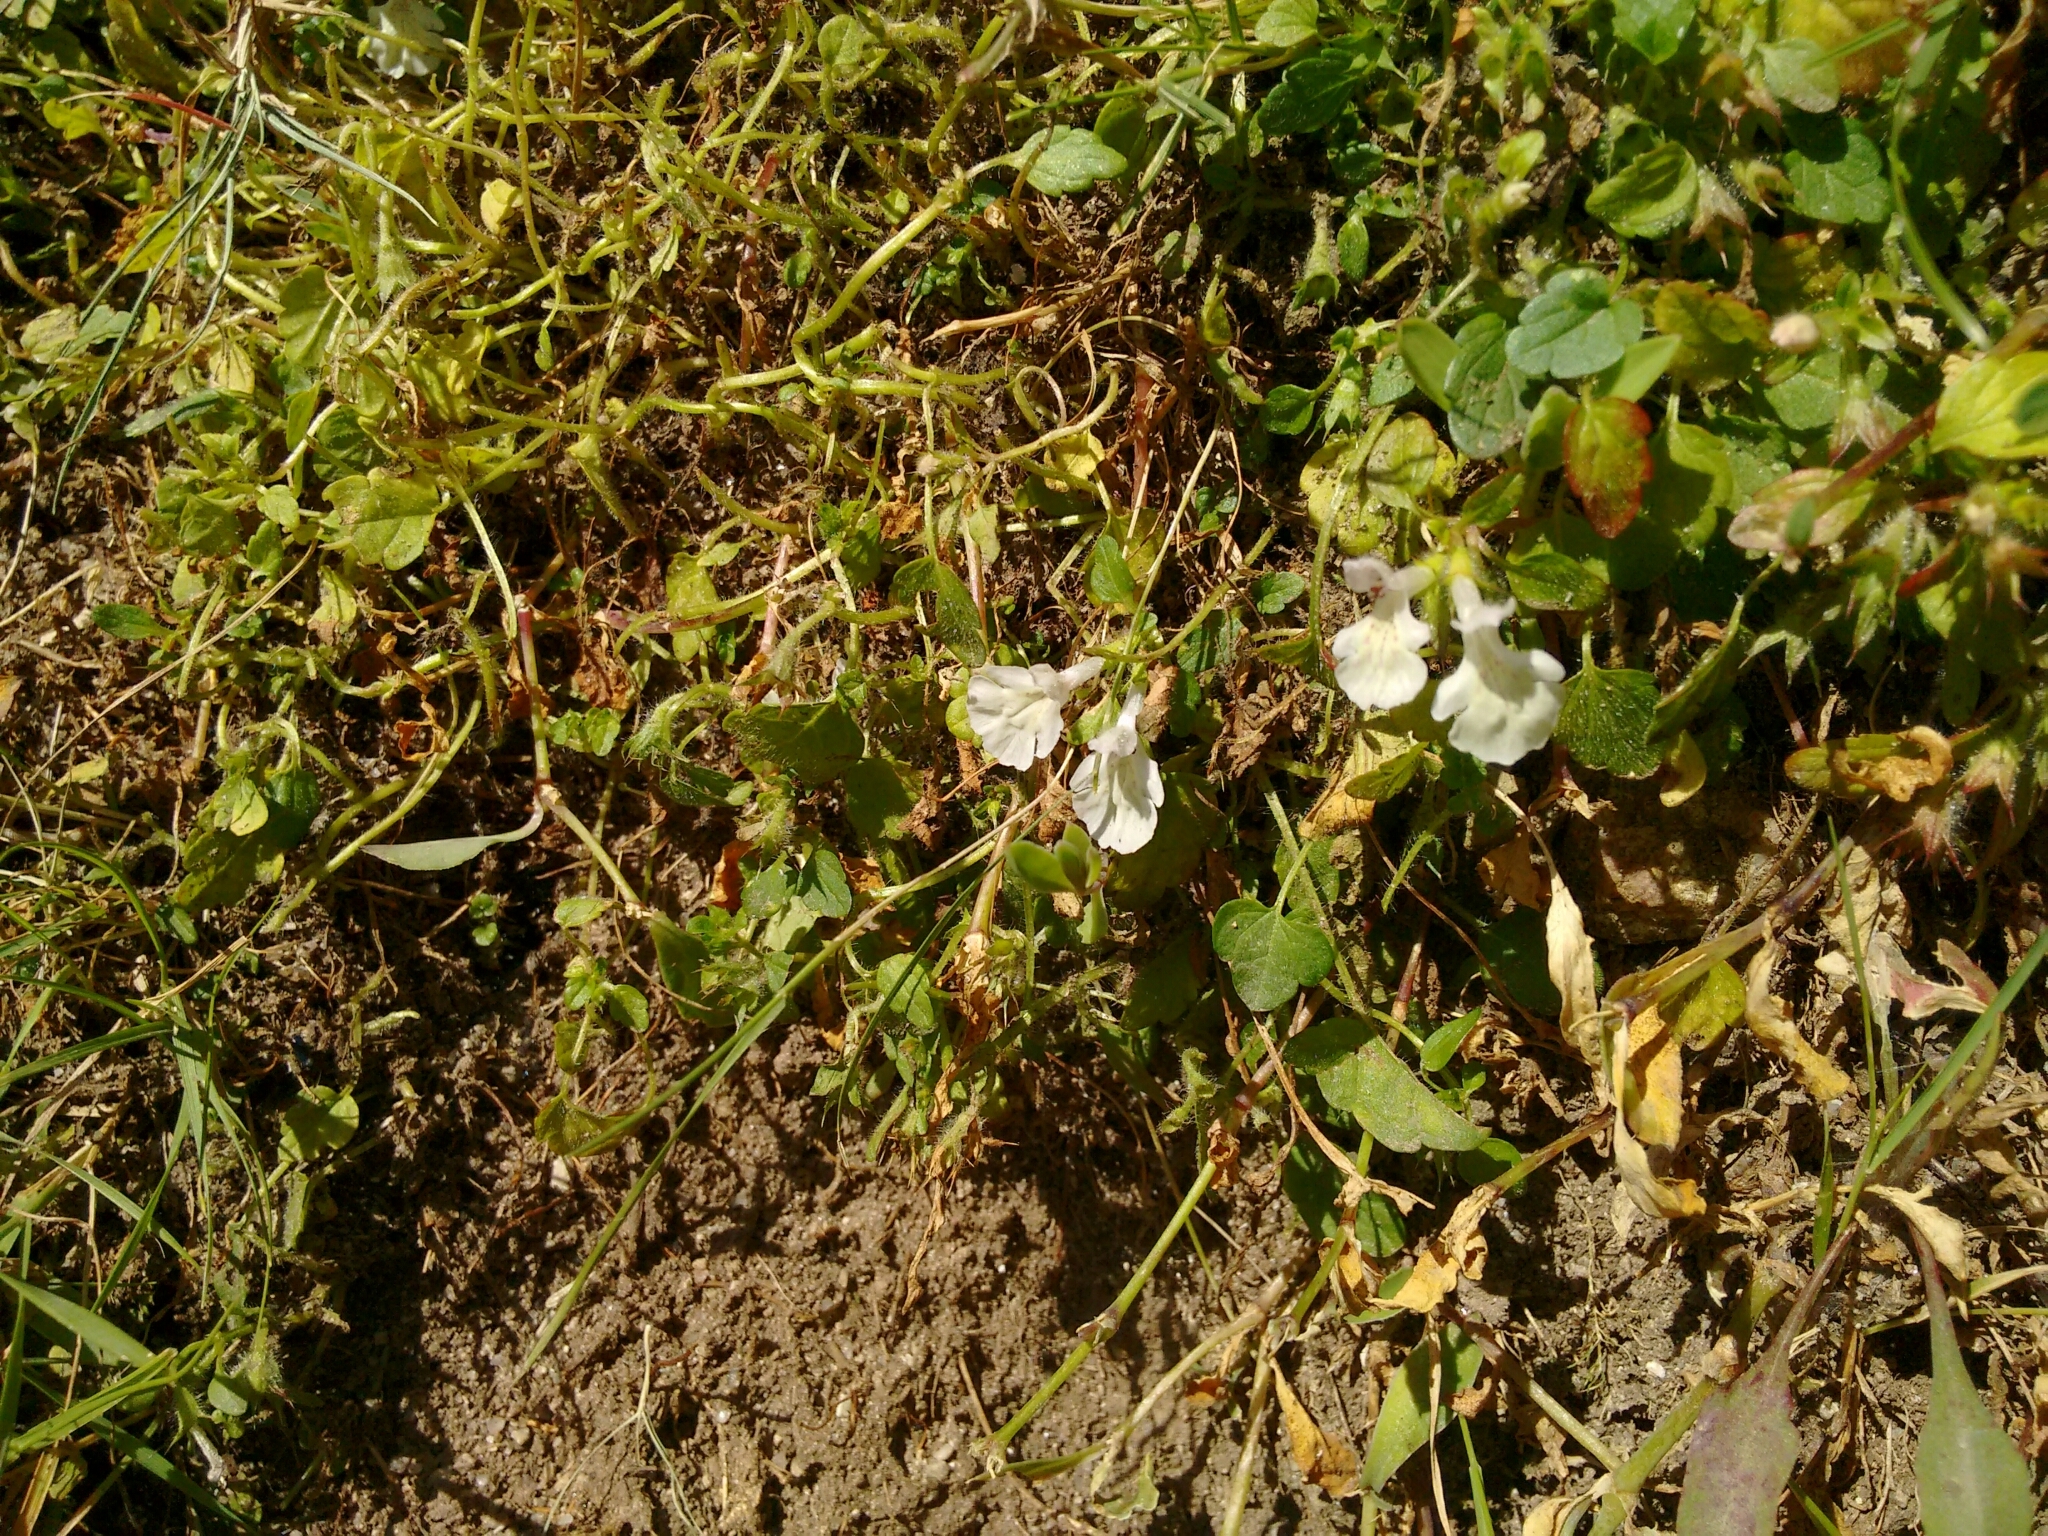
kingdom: Plantae
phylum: Tracheophyta
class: Magnoliopsida
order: Lamiales
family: Lamiaceae
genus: Stachys
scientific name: Stachys corsica
